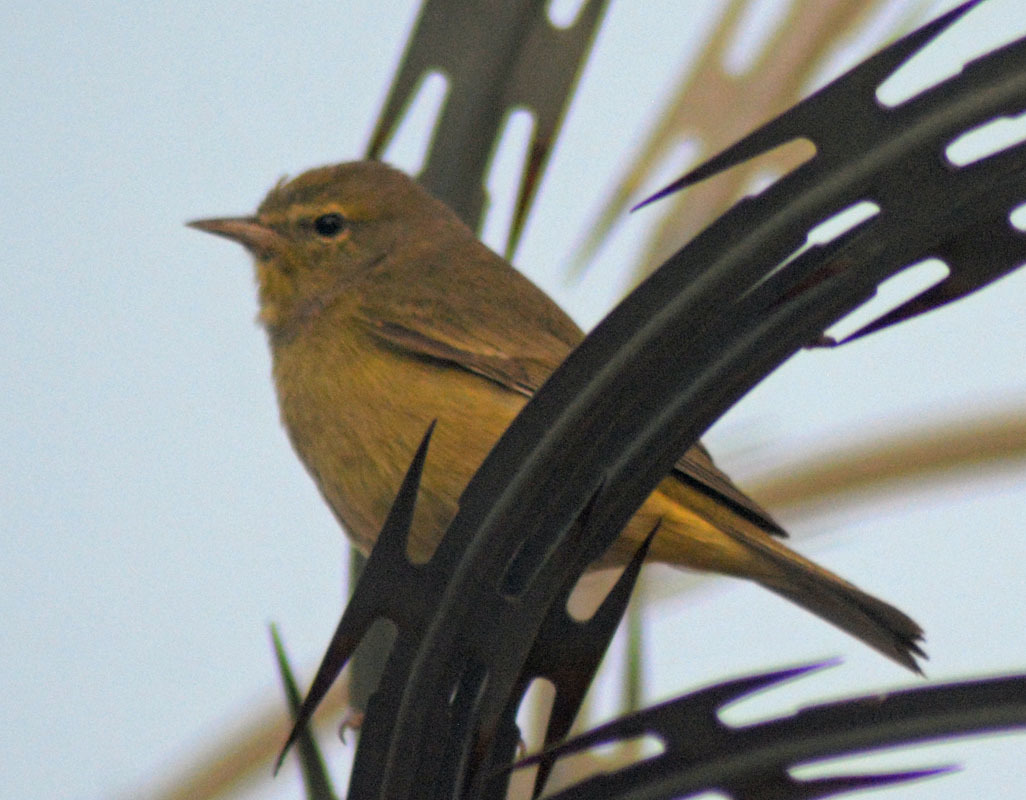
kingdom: Animalia
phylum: Chordata
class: Aves
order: Passeriformes
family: Parulidae
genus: Leiothlypis
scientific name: Leiothlypis celata
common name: Orange-crowned warbler
